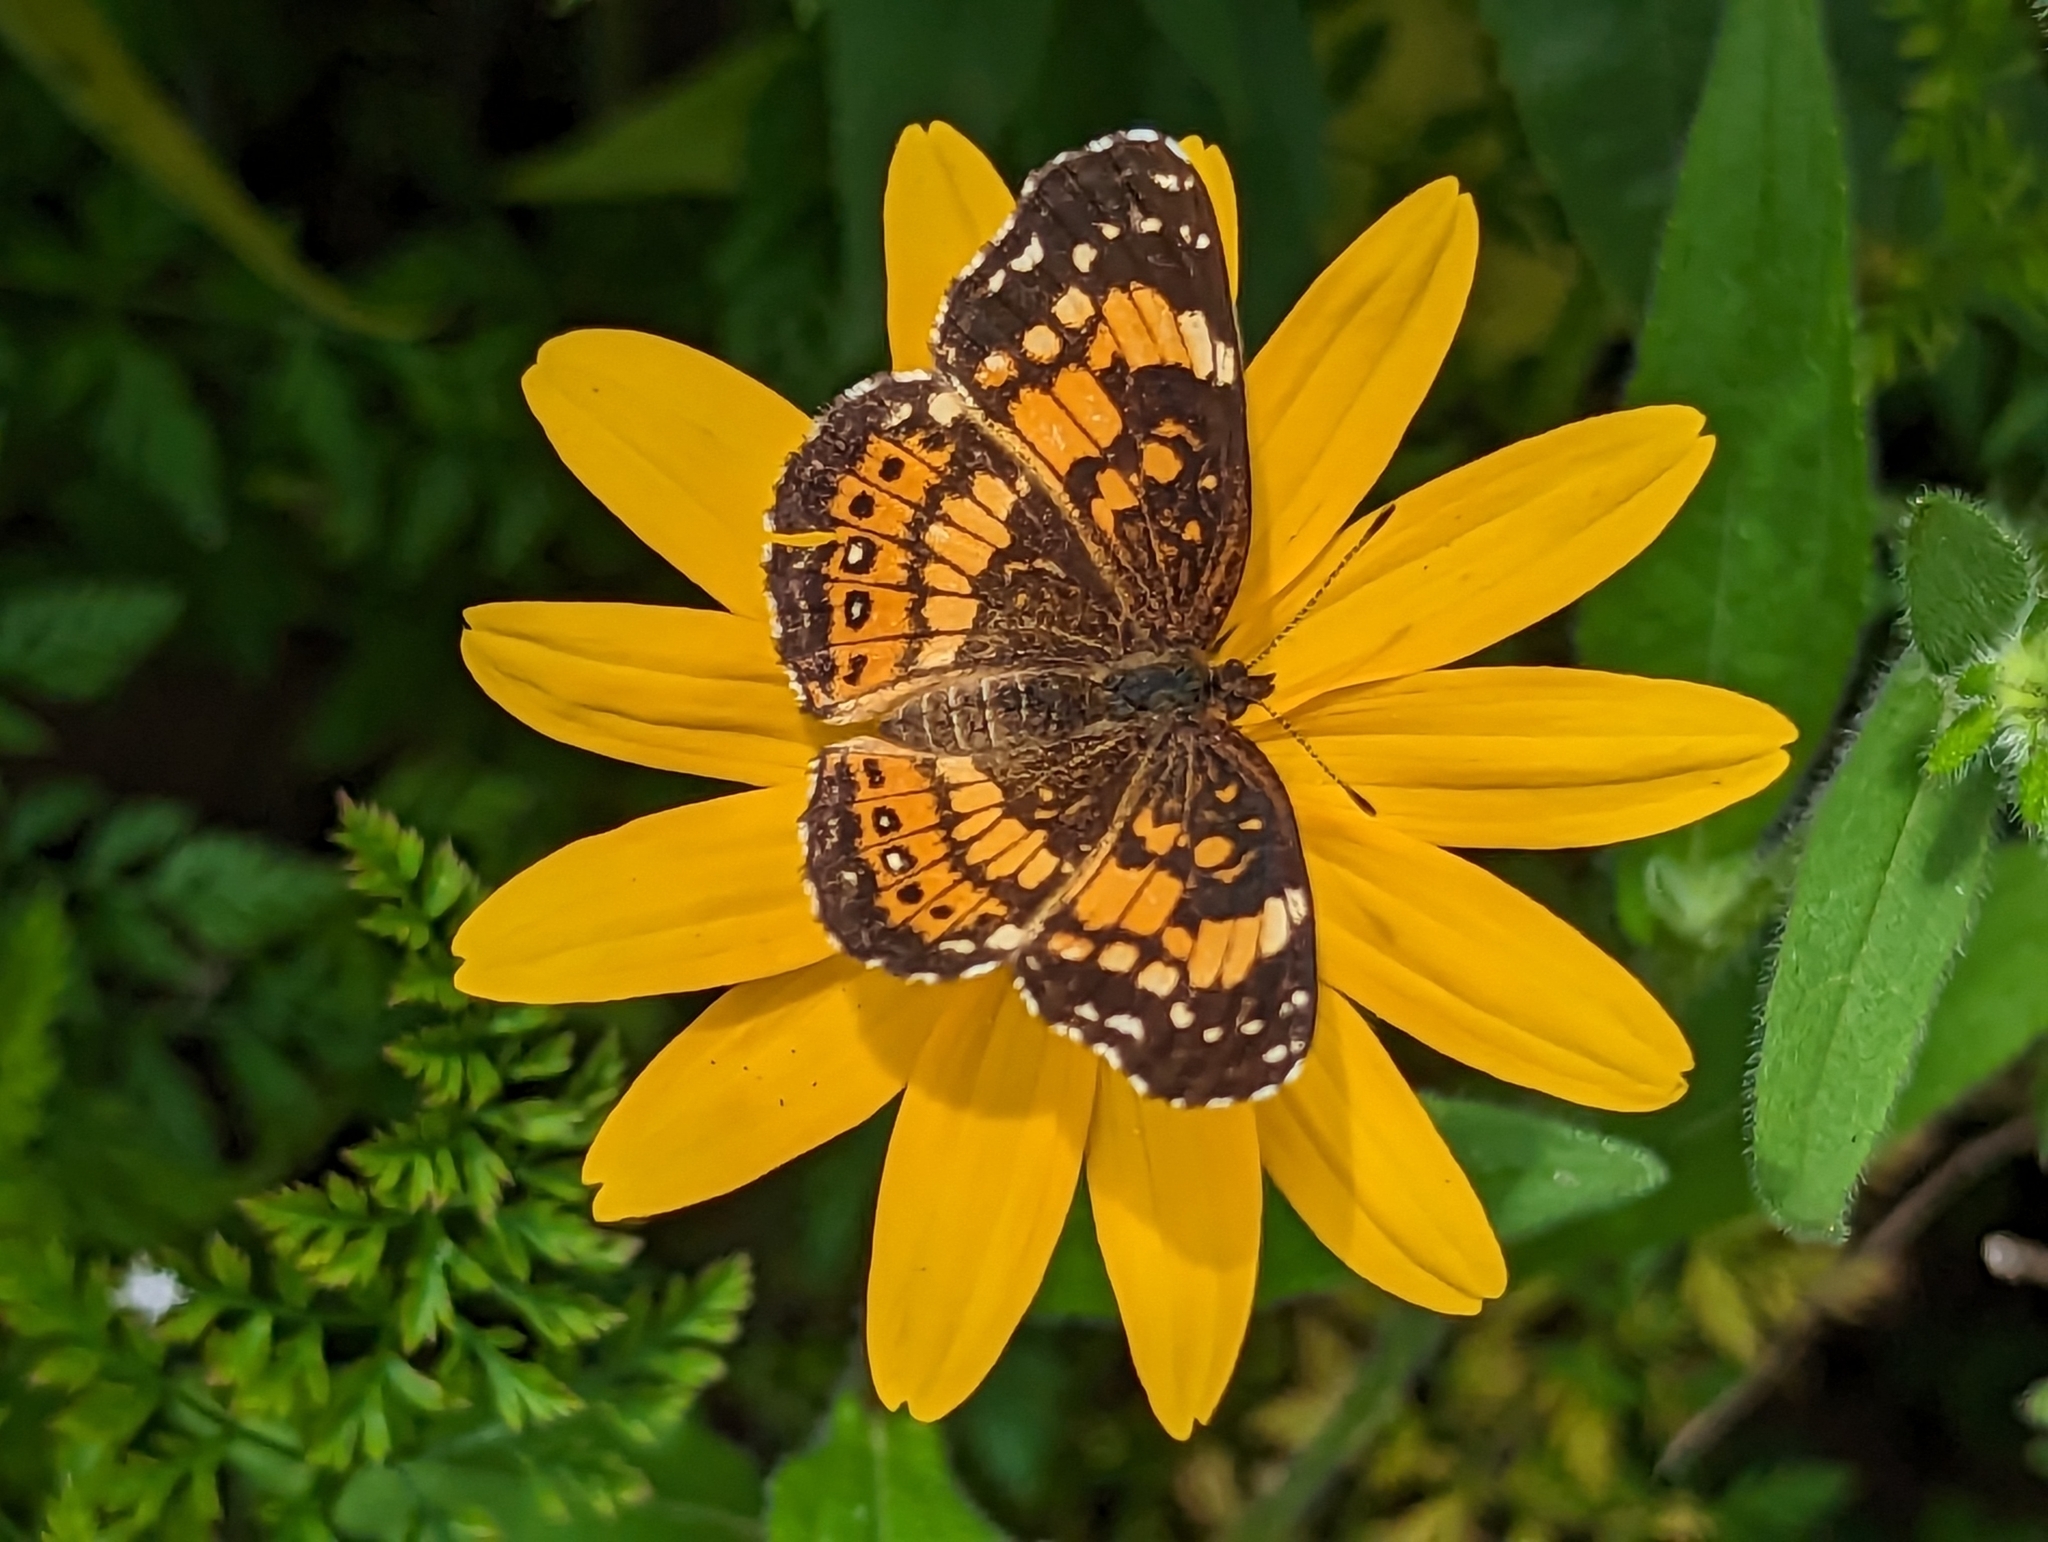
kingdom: Animalia
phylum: Arthropoda
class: Insecta
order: Lepidoptera
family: Nymphalidae
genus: Chlosyne
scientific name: Chlosyne nycteis
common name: Silvery checkerspot
